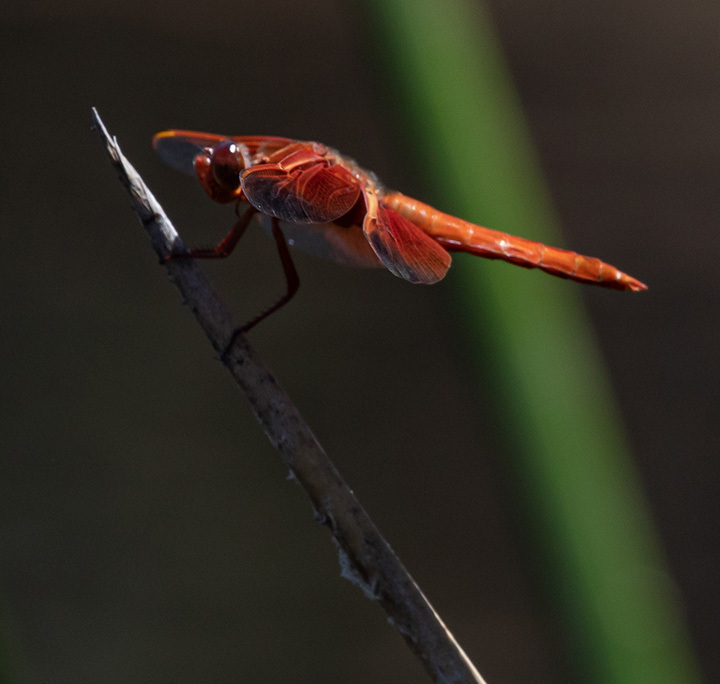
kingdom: Animalia
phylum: Arthropoda
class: Insecta
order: Odonata
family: Libellulidae
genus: Sympetrum
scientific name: Sympetrum illotum
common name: Cardinal meadowhawk
